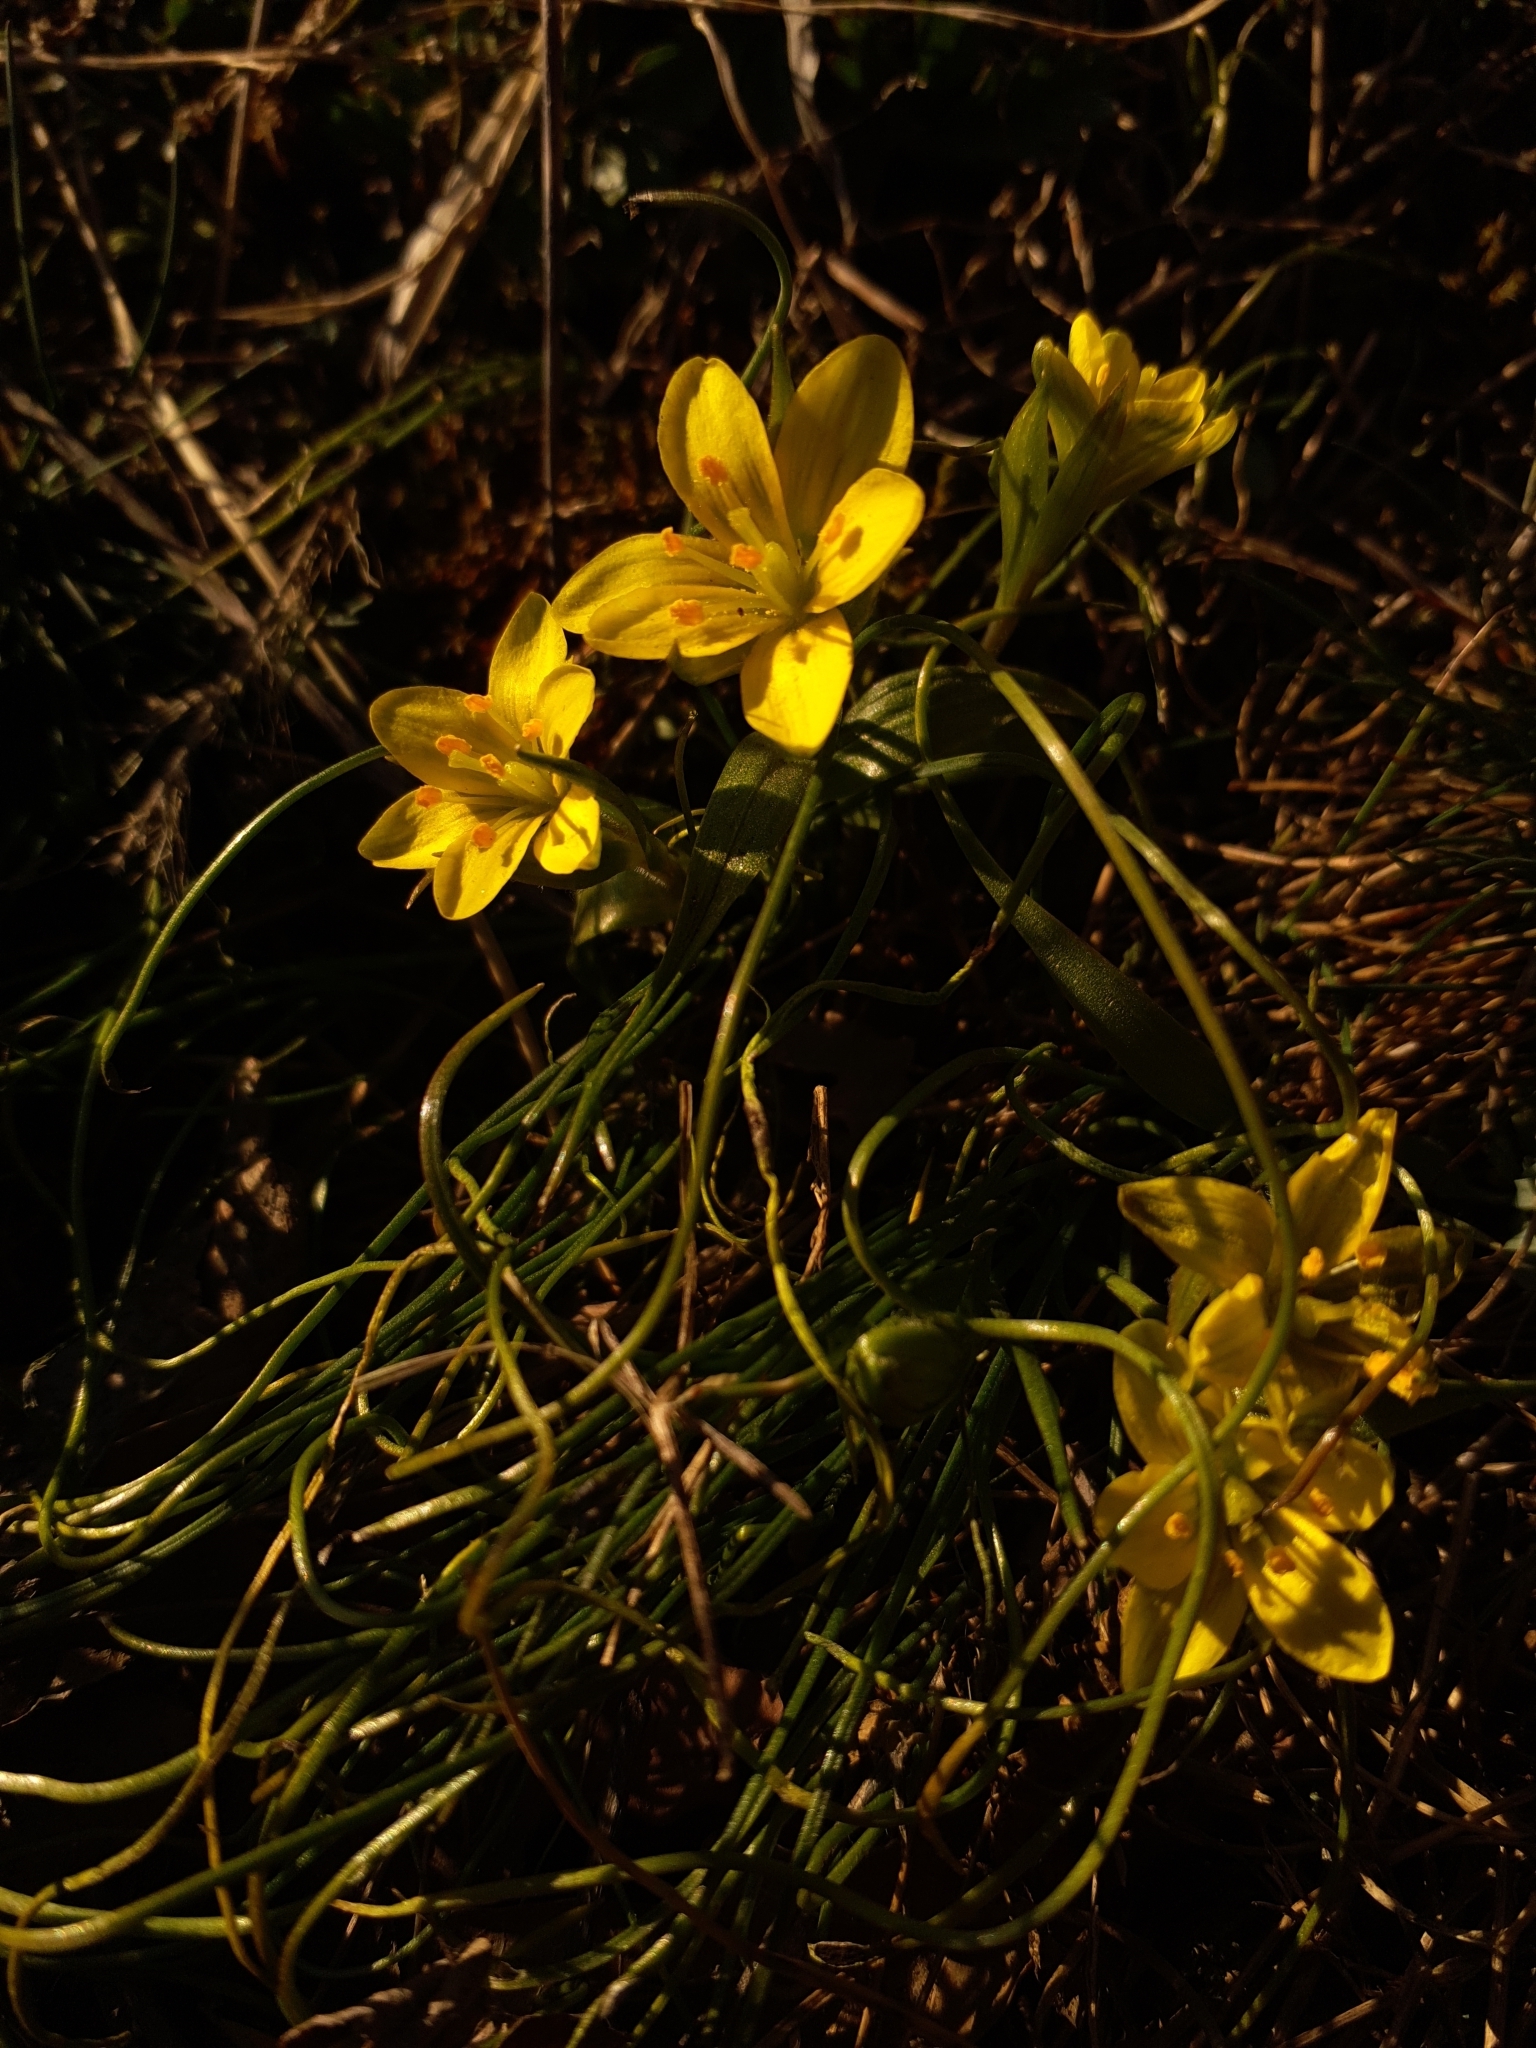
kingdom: Plantae
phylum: Tracheophyta
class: Liliopsida
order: Liliales
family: Liliaceae
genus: Gagea
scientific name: Gagea bohemica
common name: Early star-of-bethlehem
